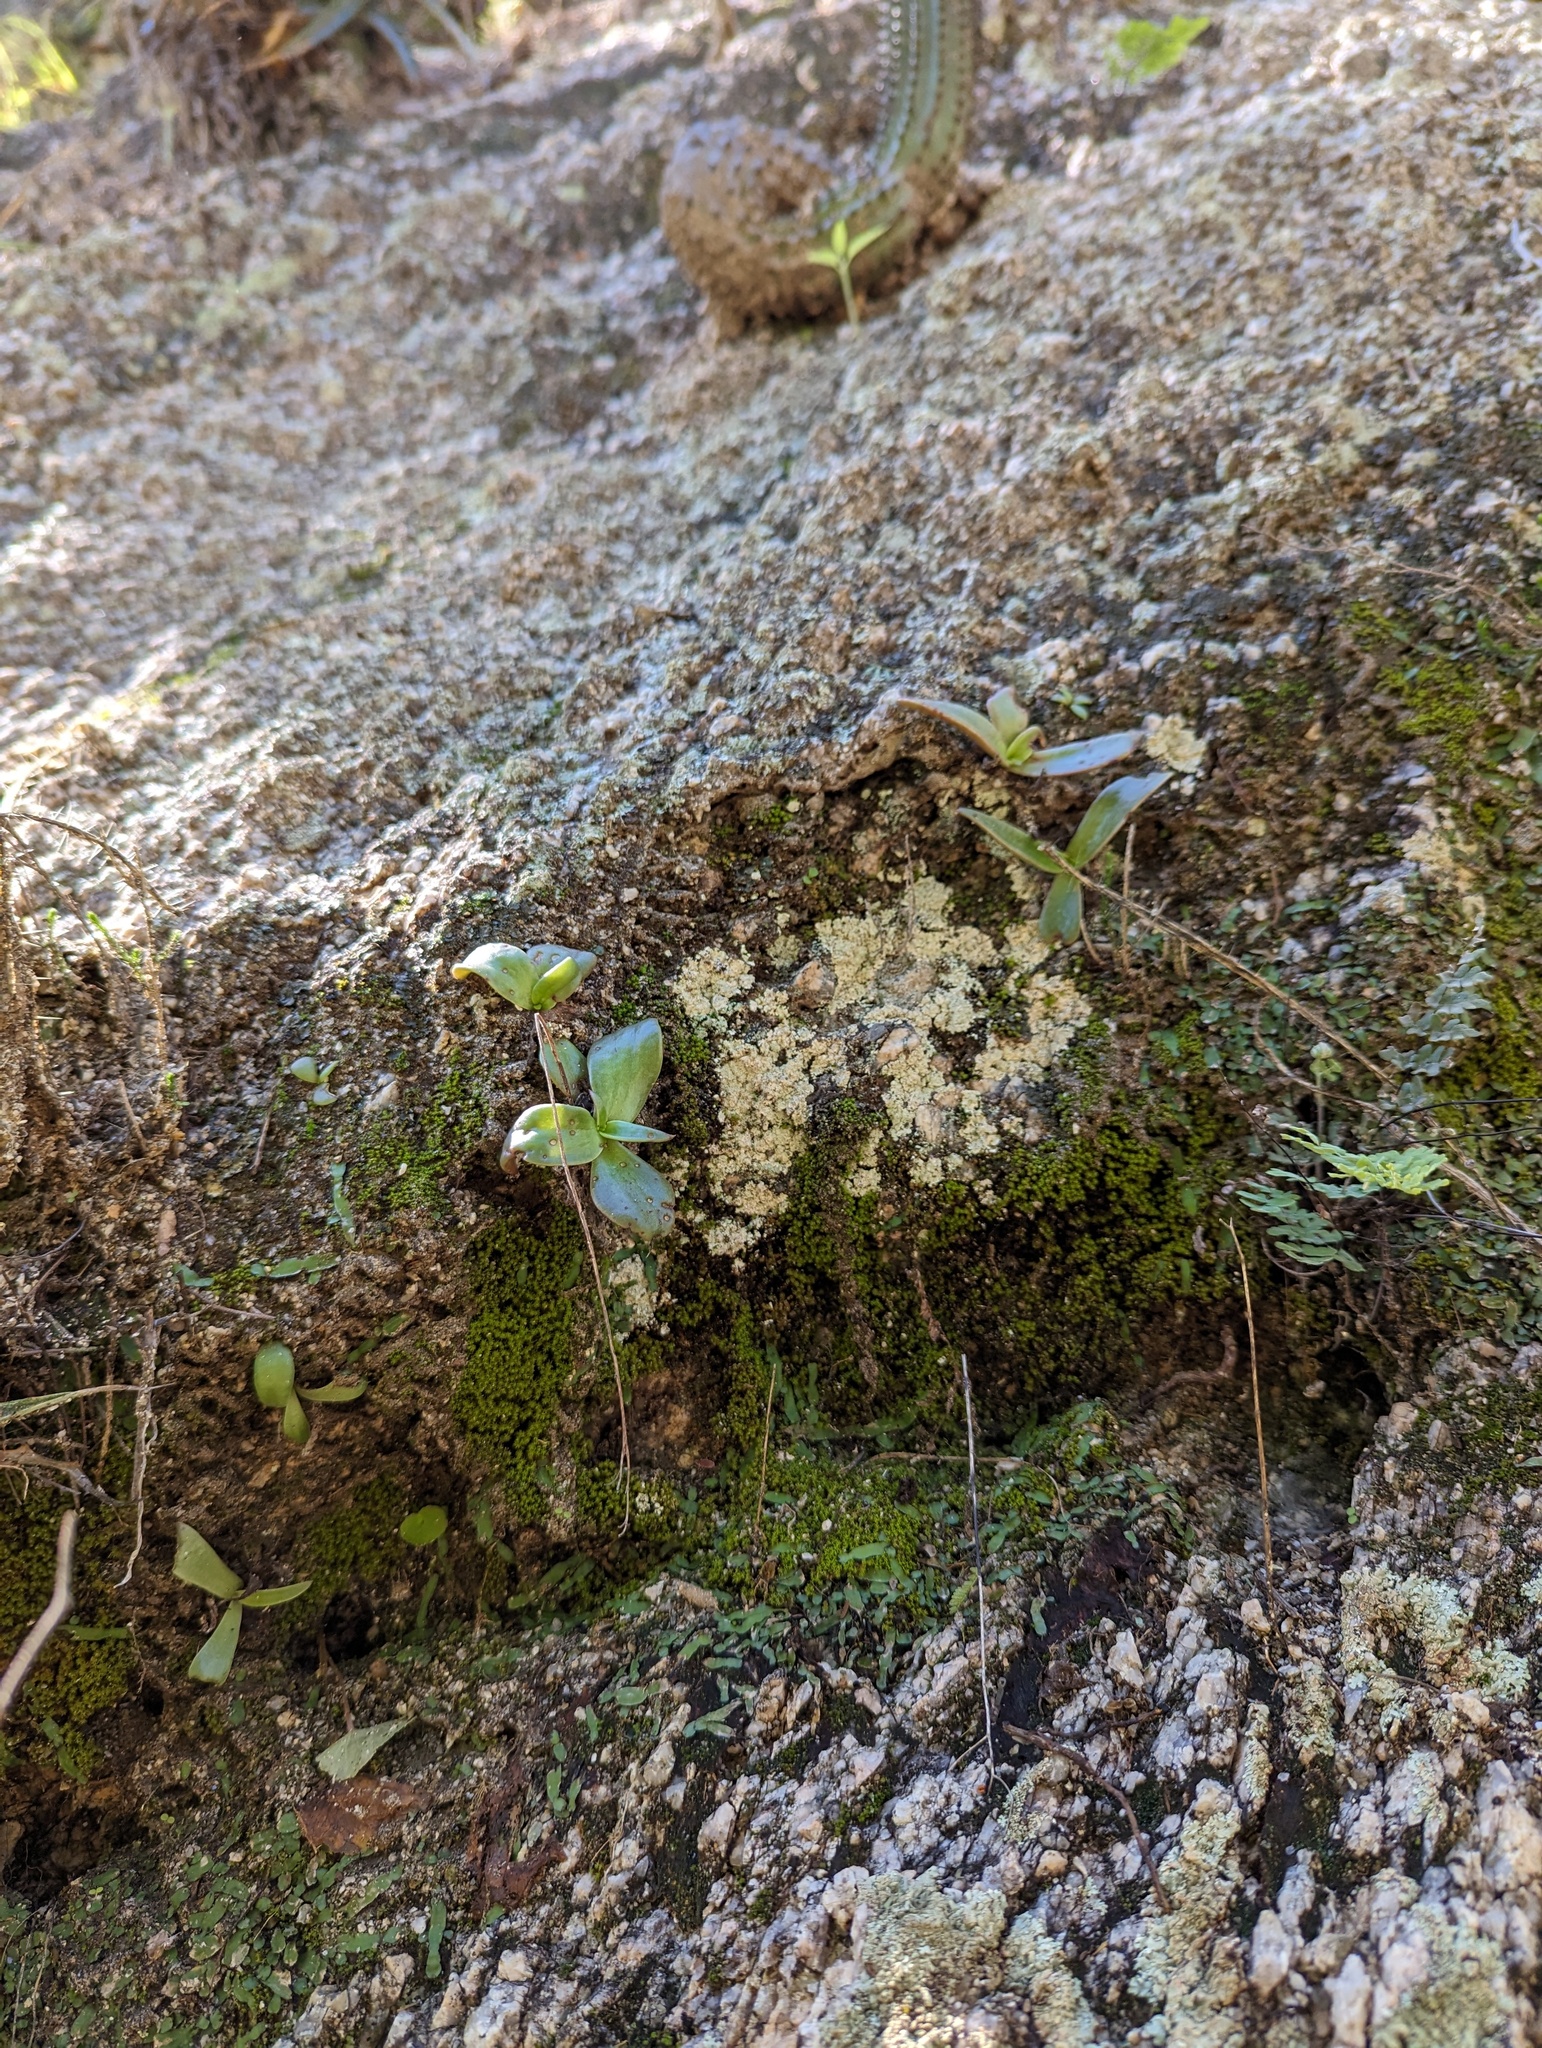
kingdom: Plantae
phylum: Tracheophyta
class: Magnoliopsida
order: Saxifragales
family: Crassulaceae
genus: Dudleya
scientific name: Dudleya nubigena
